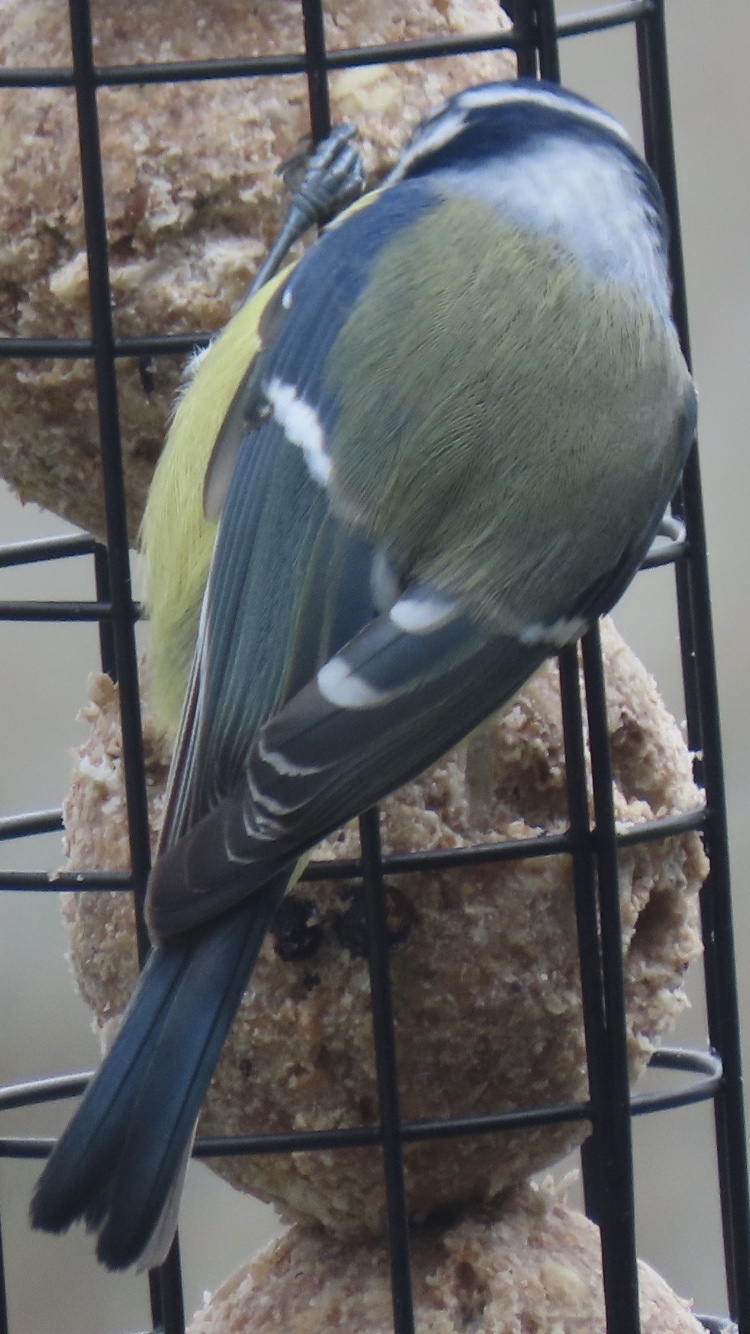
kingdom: Animalia
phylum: Chordata
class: Aves
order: Passeriformes
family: Paridae
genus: Cyanistes
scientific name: Cyanistes caeruleus
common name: Eurasian blue tit
